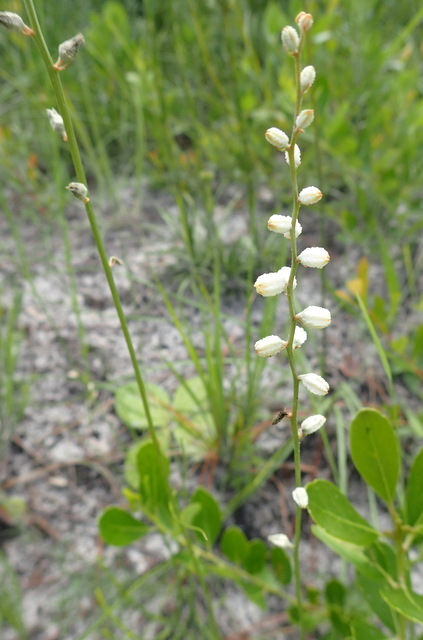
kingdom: Plantae
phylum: Tracheophyta
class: Liliopsida
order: Dioscoreales
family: Nartheciaceae
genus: Aletris
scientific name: Aletris obovata
